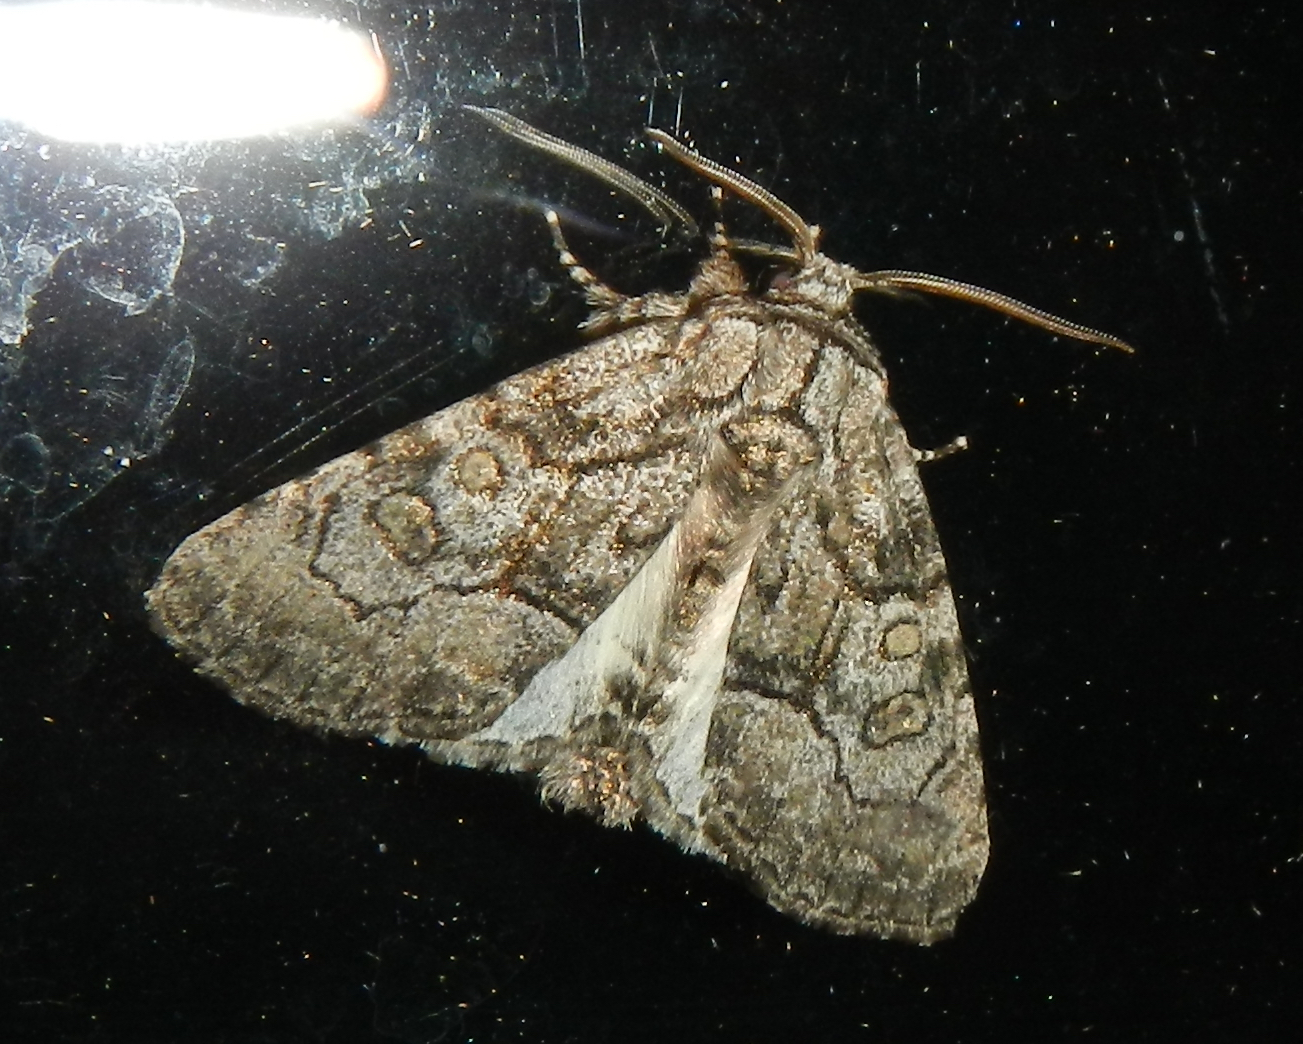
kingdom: Animalia
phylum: Arthropoda
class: Insecta
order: Lepidoptera
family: Noctuidae
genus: Raphia
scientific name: Raphia frater
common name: Brother
